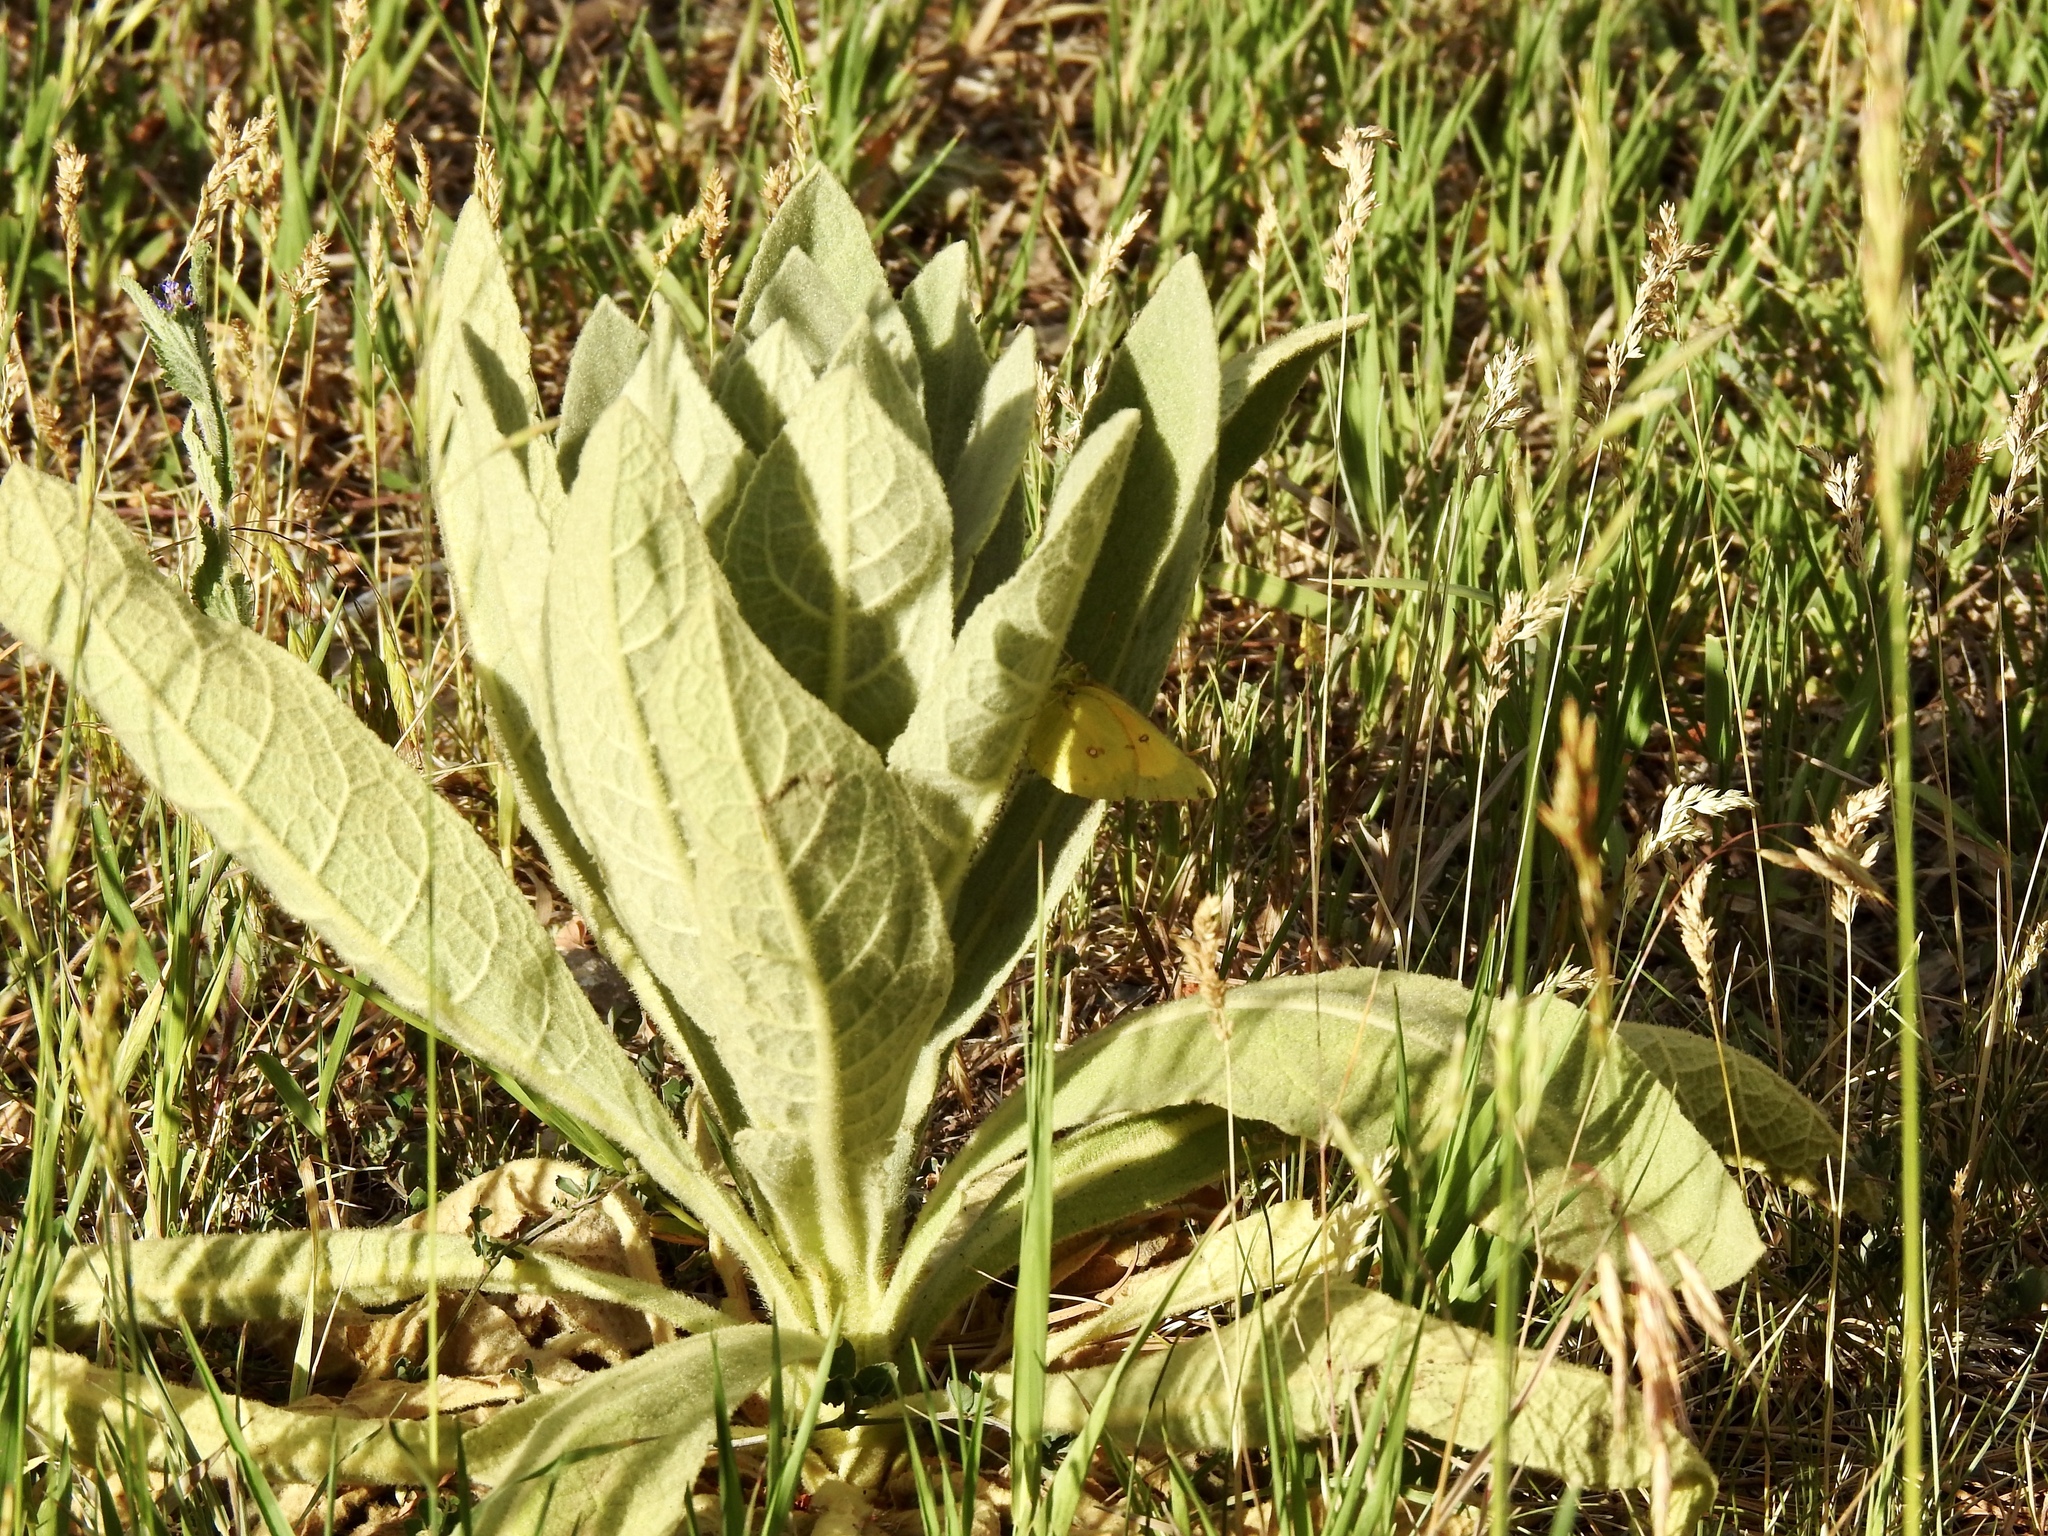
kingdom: Animalia
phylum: Arthropoda
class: Insecta
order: Lepidoptera
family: Pieridae
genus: Colias
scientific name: Colias eurytheme
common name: Alfalfa butterfly
